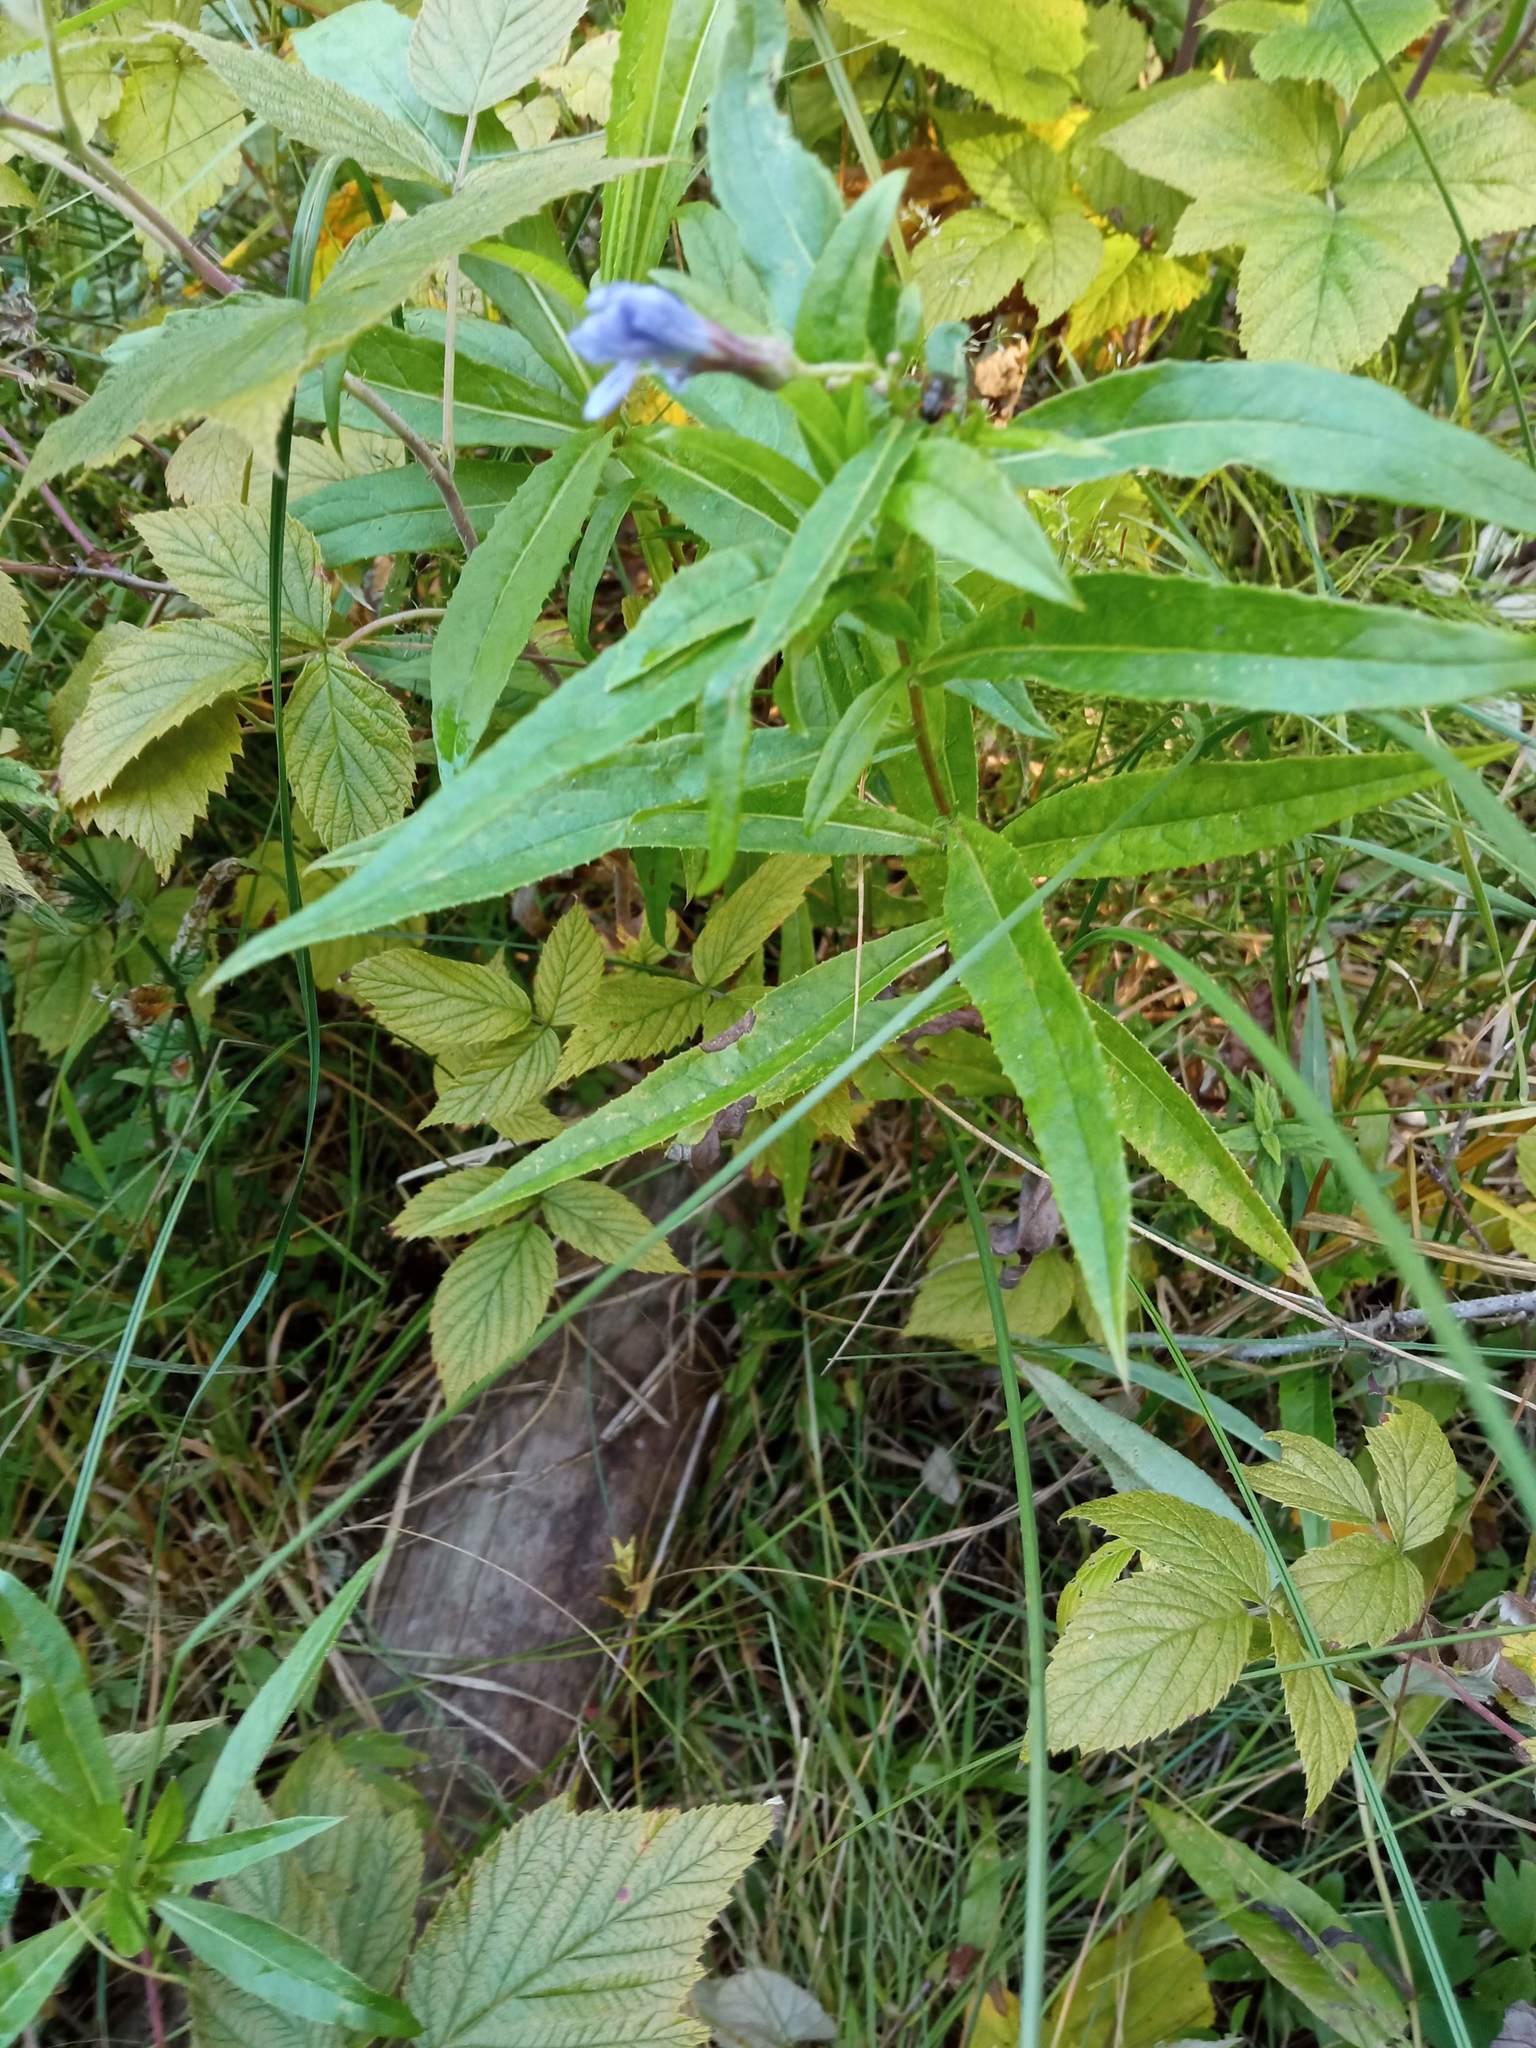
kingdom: Plantae
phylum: Tracheophyta
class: Magnoliopsida
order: Asterales
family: Asteraceae
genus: Lactuca
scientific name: Lactuca sibirica
